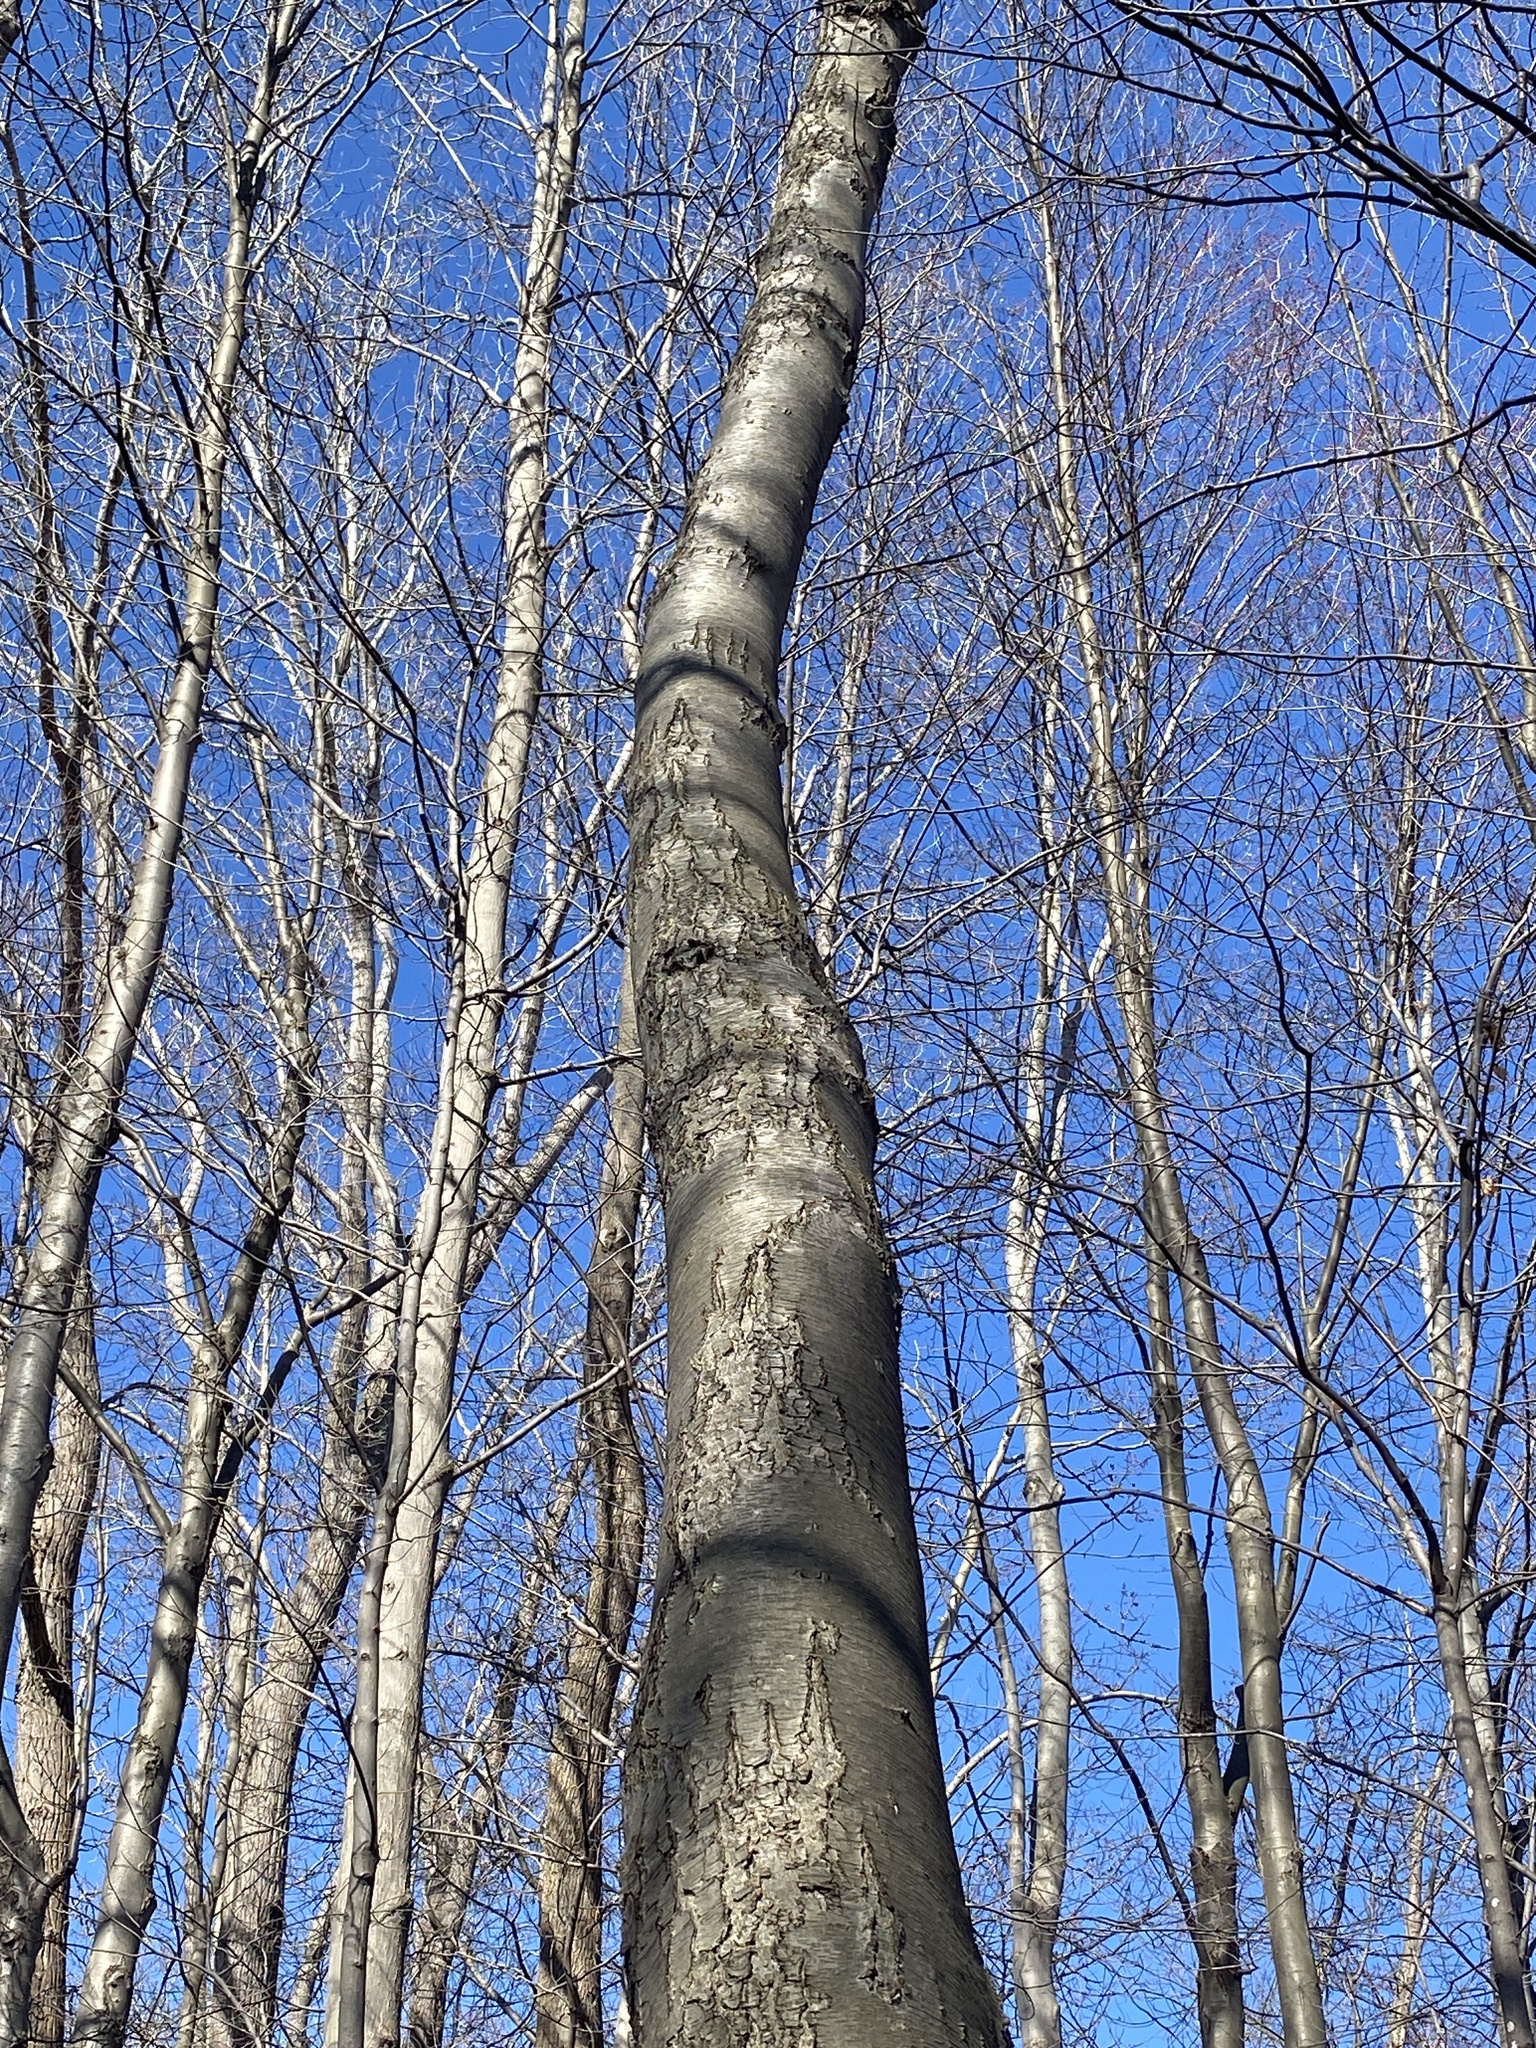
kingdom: Plantae
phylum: Tracheophyta
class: Magnoliopsida
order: Fagales
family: Betulaceae
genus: Betula
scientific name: Betula lenta
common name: Black birch
